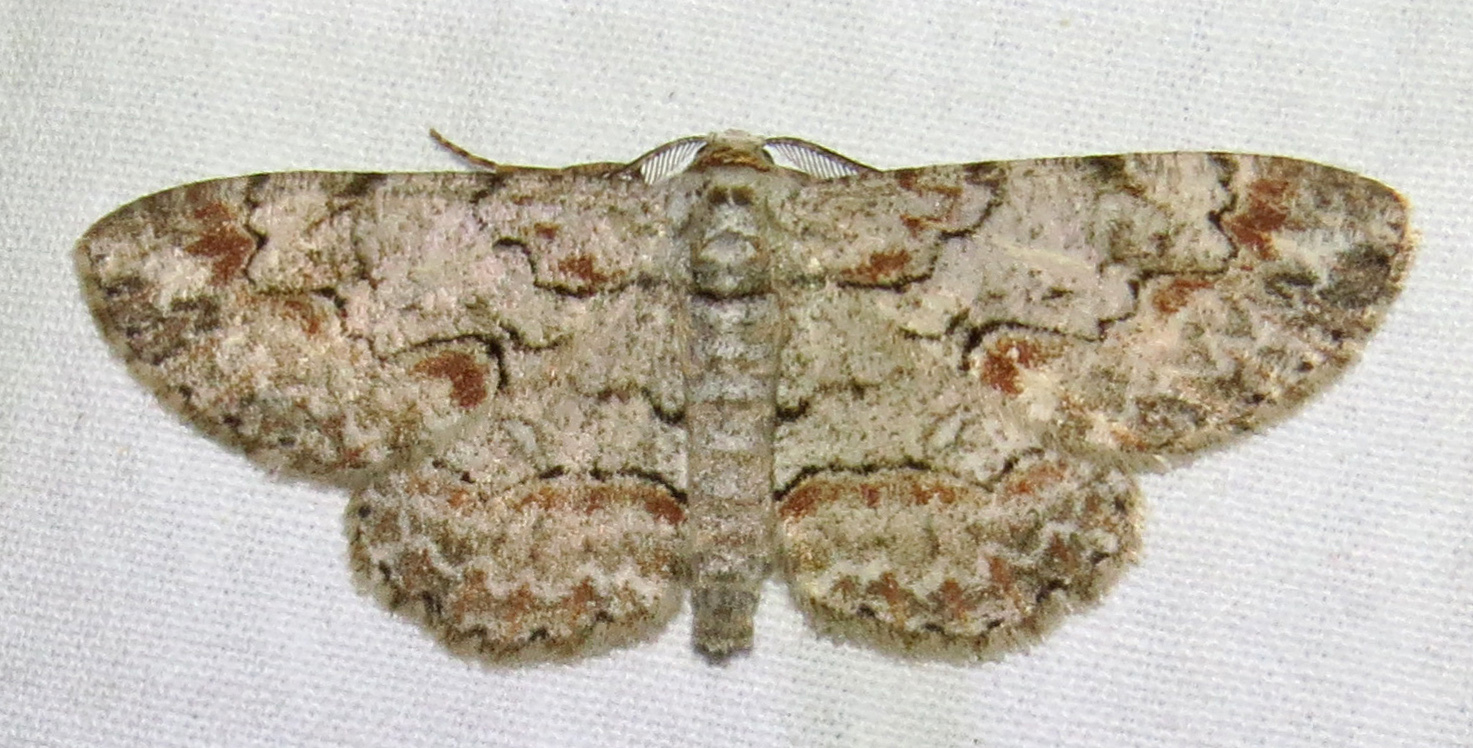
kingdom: Animalia
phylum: Arthropoda
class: Insecta
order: Lepidoptera
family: Geometridae
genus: Iridopsis
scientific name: Iridopsis defectaria
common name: Brown-shaded gray
